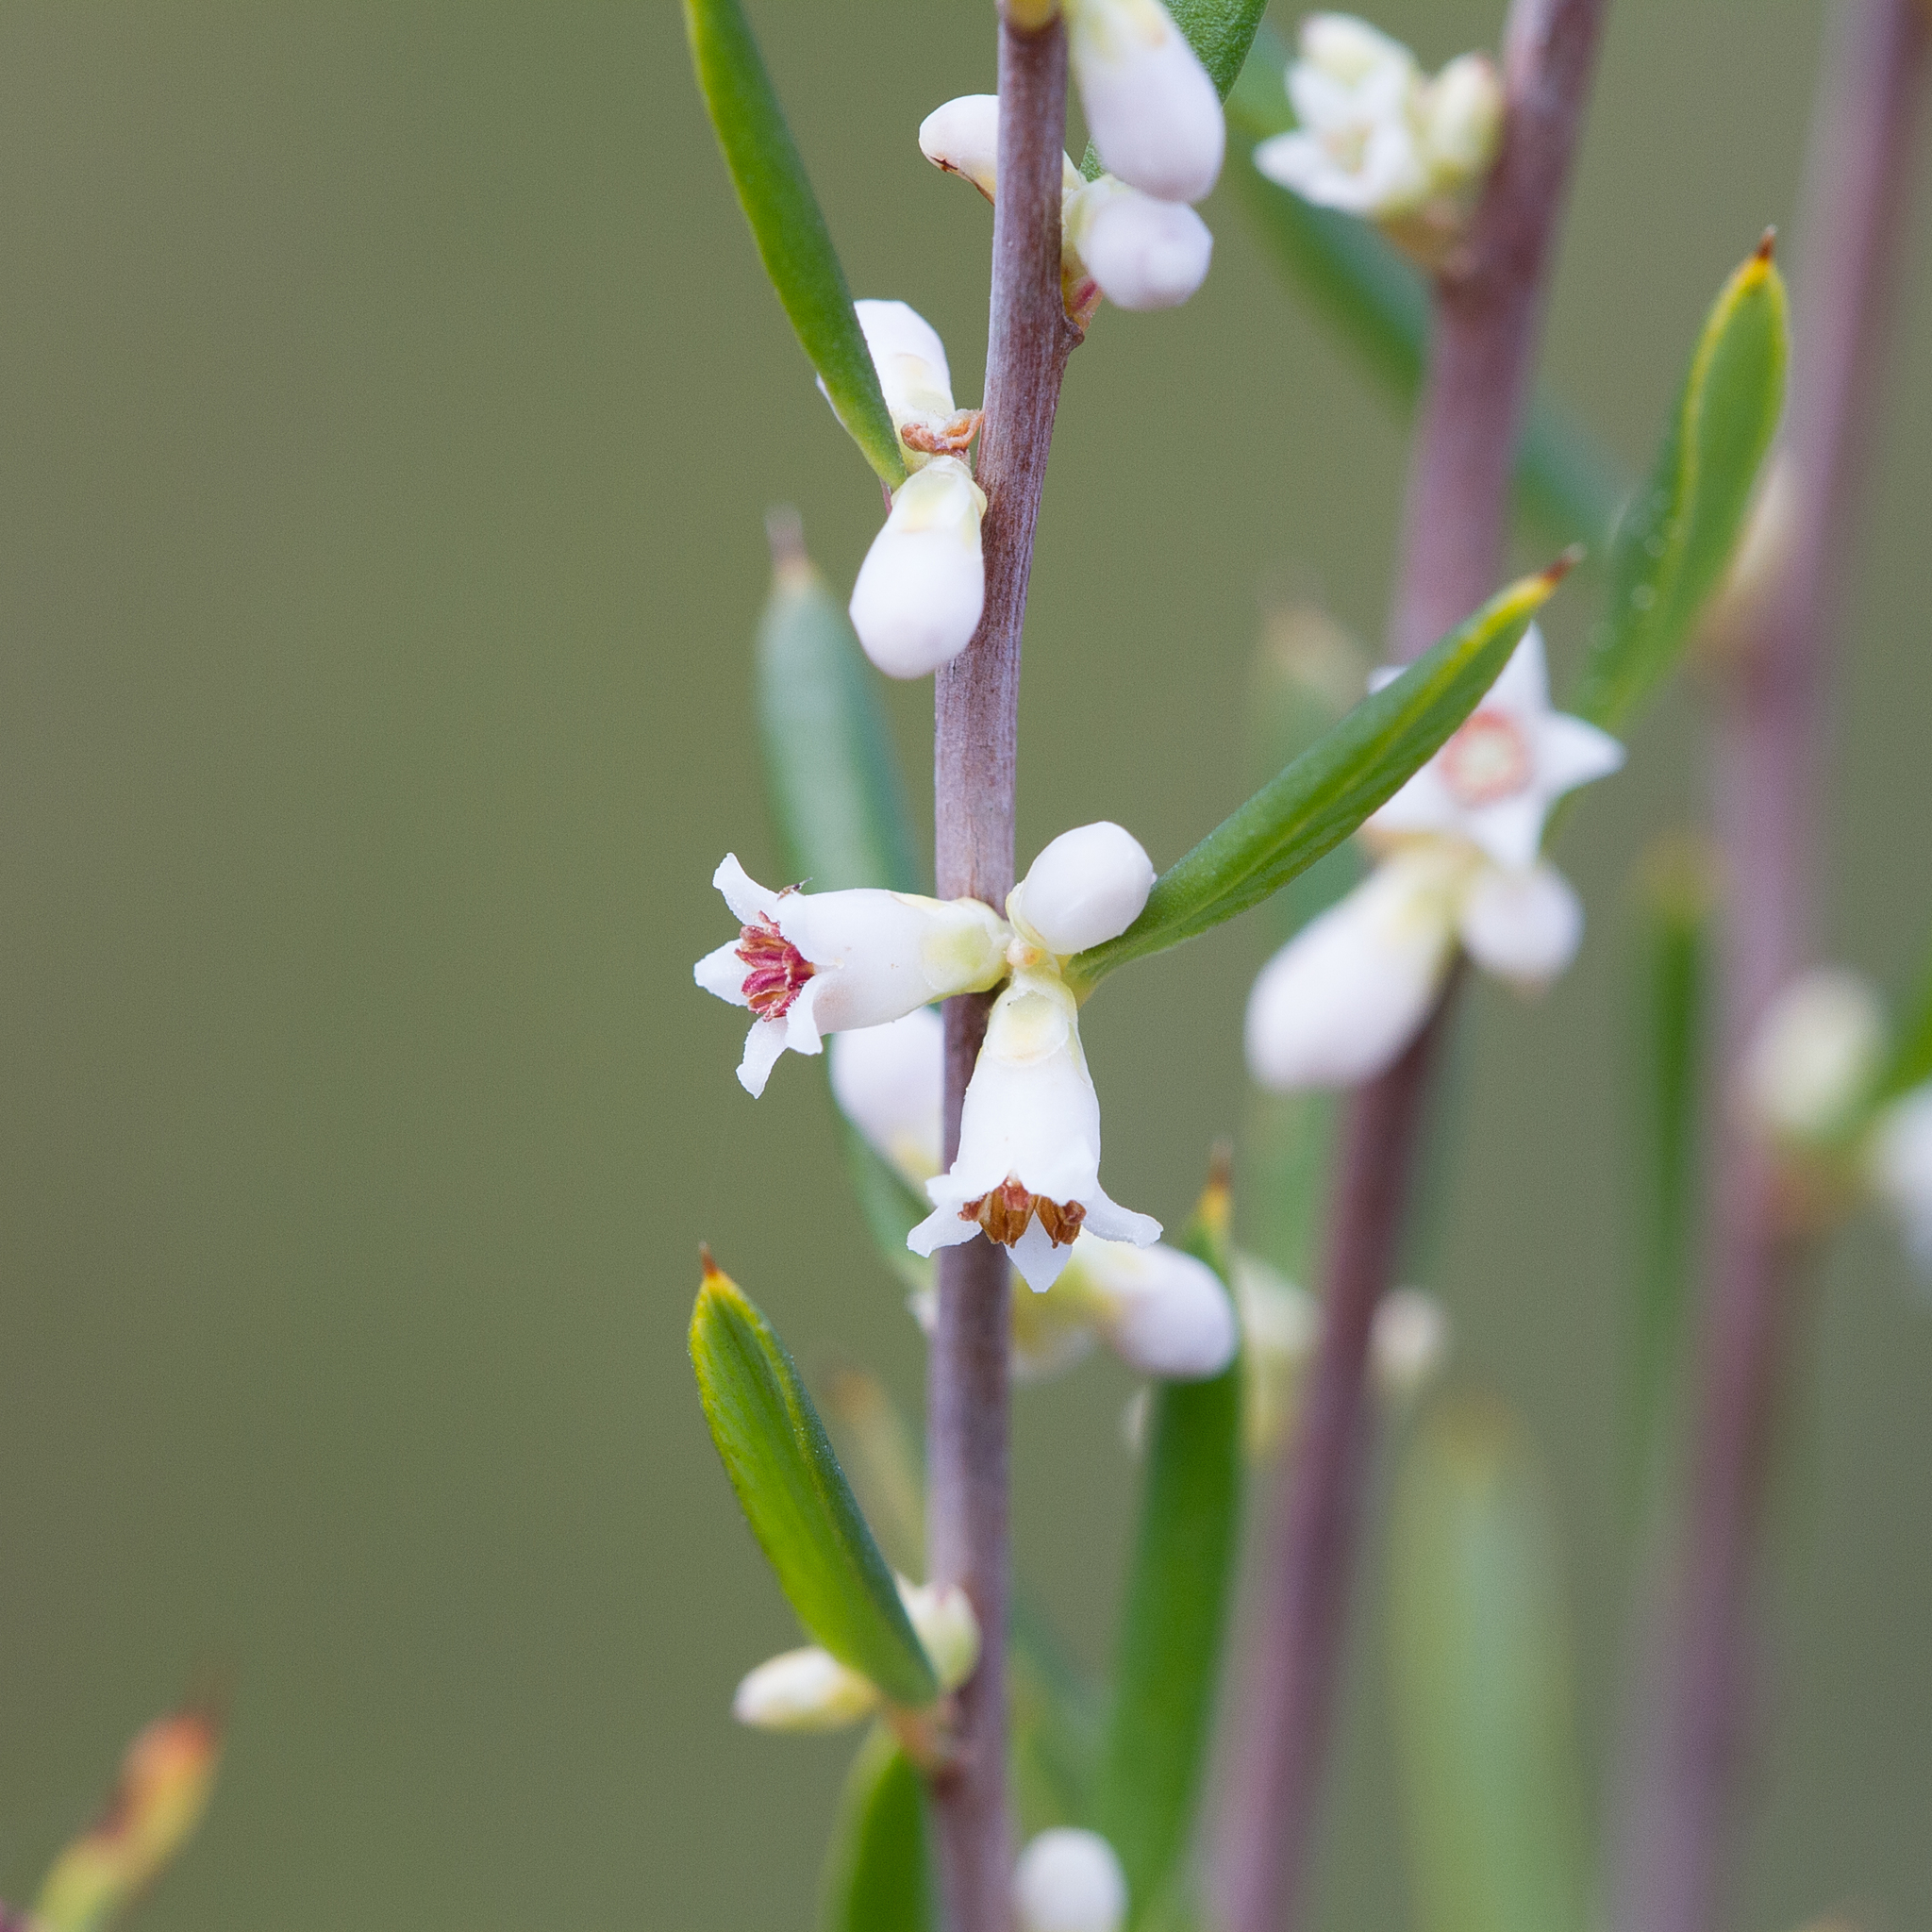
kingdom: Plantae
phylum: Tracheophyta
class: Magnoliopsida
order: Ericales
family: Ericaceae
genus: Monotoca
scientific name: Monotoca scoparia
